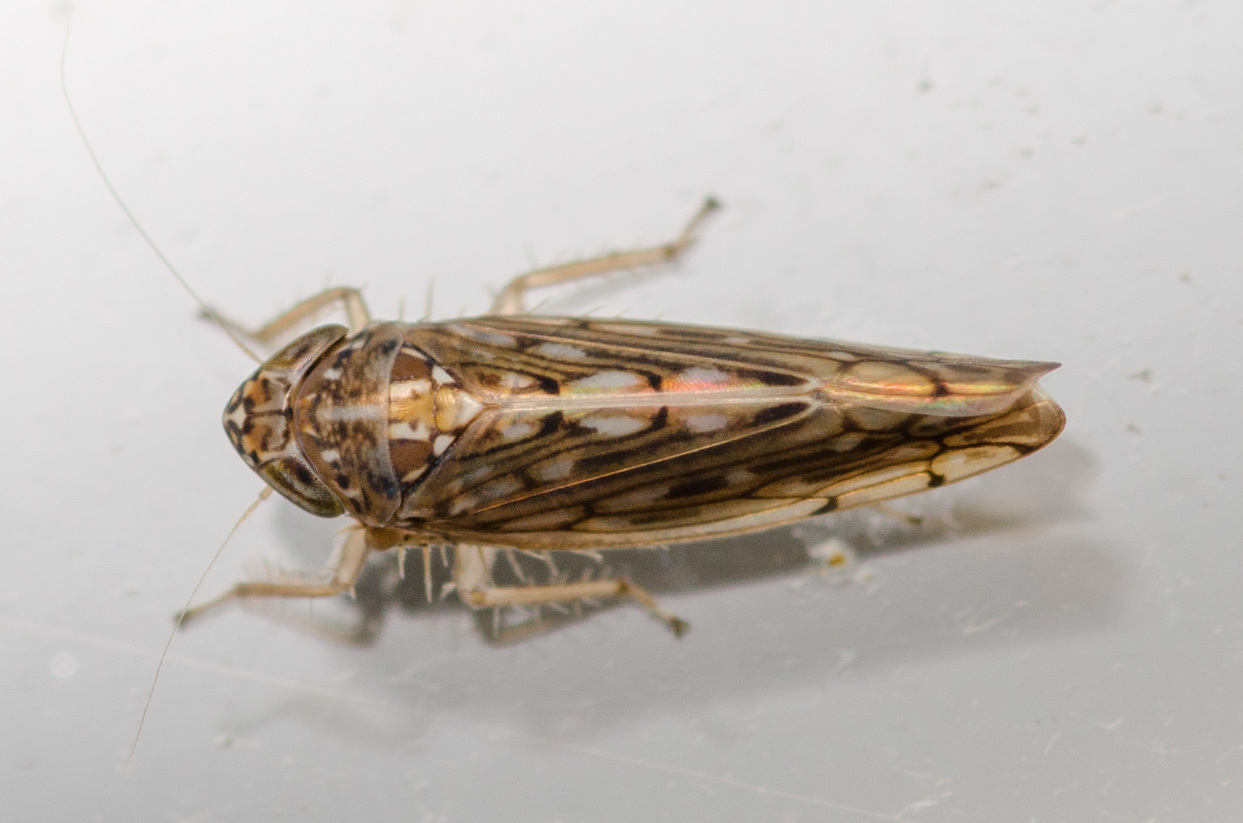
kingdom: Animalia
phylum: Arthropoda
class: Insecta
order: Hemiptera
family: Cicadellidae
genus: Osbornellus
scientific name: Osbornellus clarus
